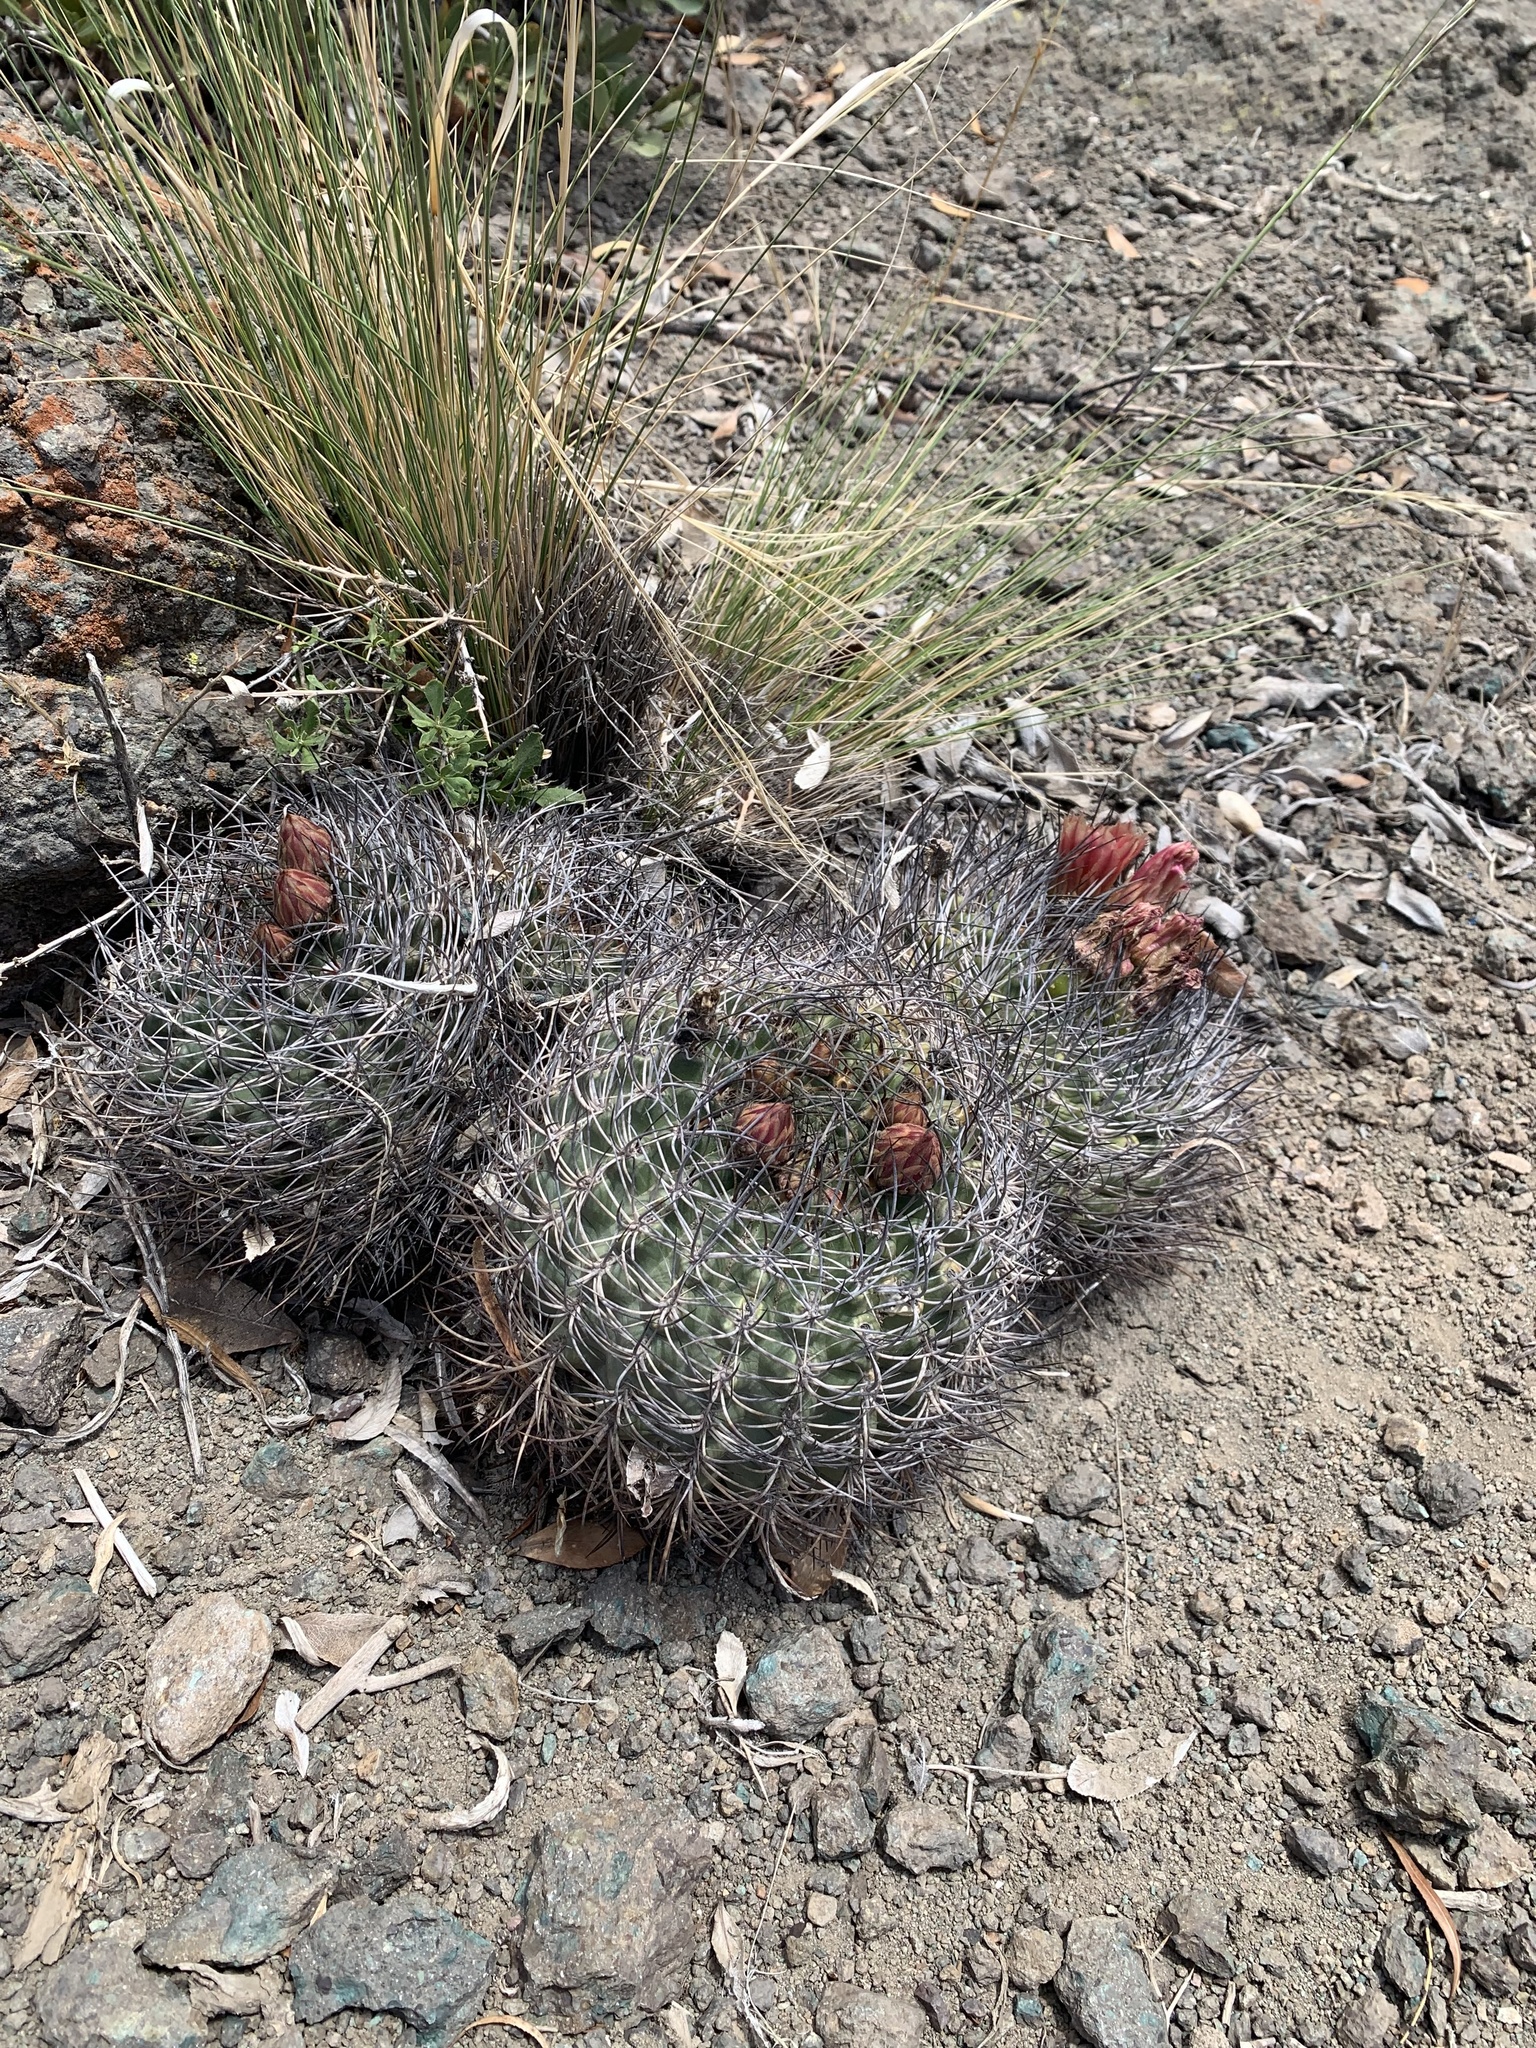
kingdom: Plantae
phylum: Tracheophyta
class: Magnoliopsida
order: Caryophyllales
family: Cactaceae
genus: Eriosyce
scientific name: Eriosyce curvispina
